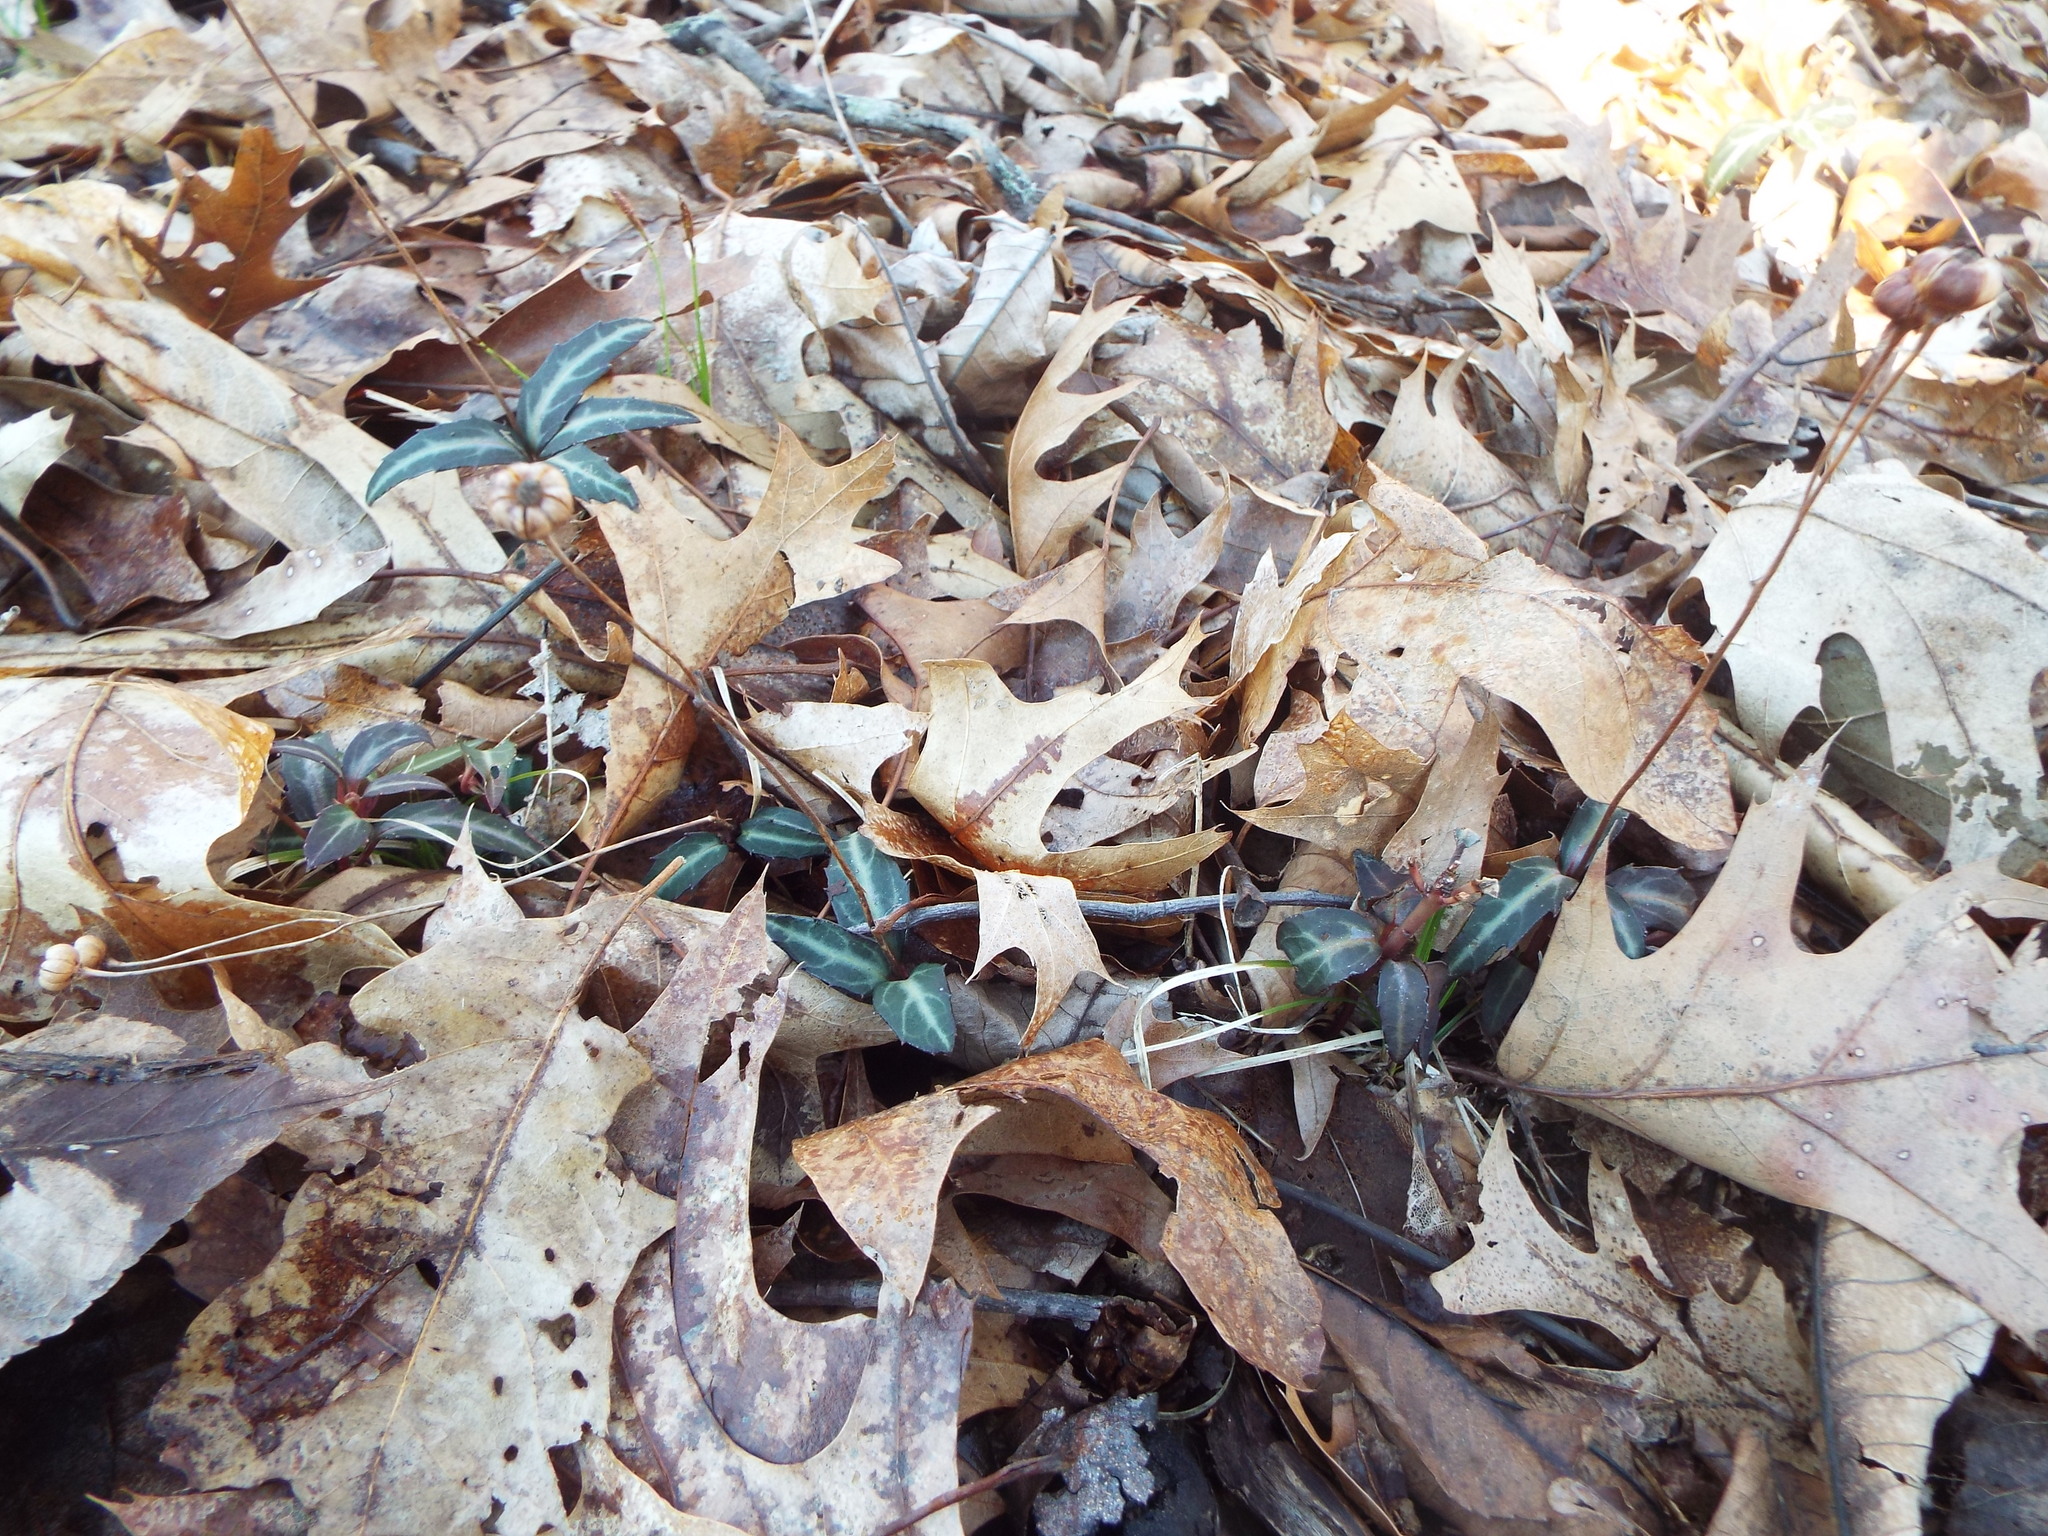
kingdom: Plantae
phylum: Tracheophyta
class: Magnoliopsida
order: Ericales
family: Ericaceae
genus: Chimaphila
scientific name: Chimaphila maculata
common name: Spotted pipsissewa
